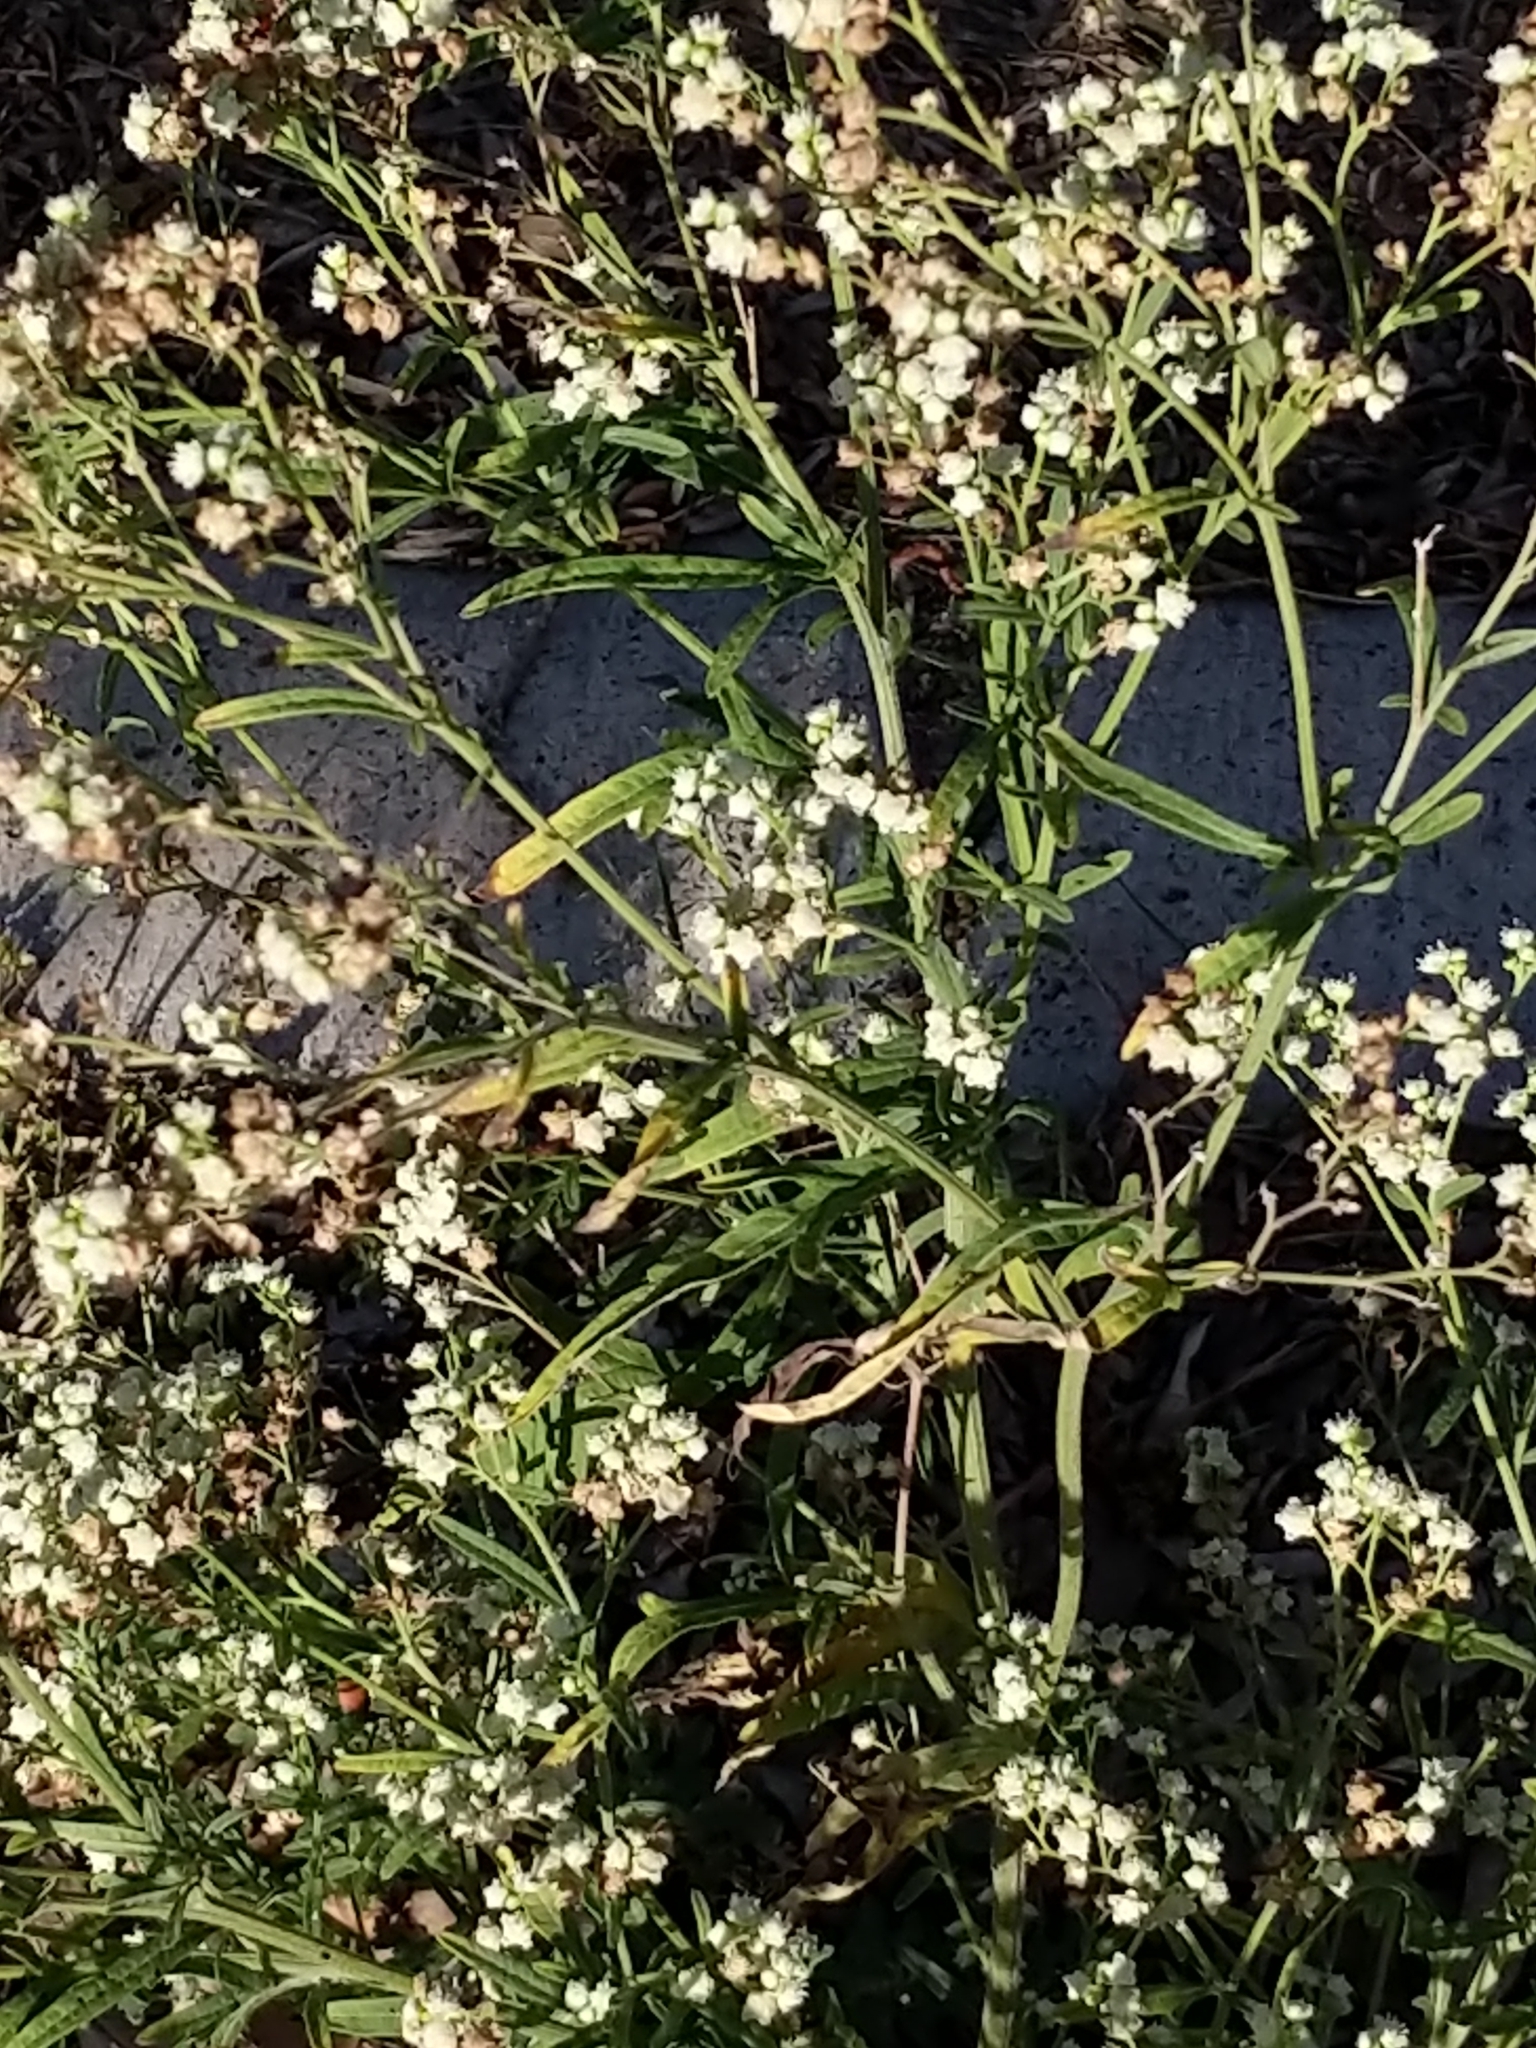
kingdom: Plantae
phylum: Tracheophyta
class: Magnoliopsida
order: Asterales
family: Asteraceae
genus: Parthenium
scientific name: Parthenium hysterophorus
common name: Santa maria feverfew
